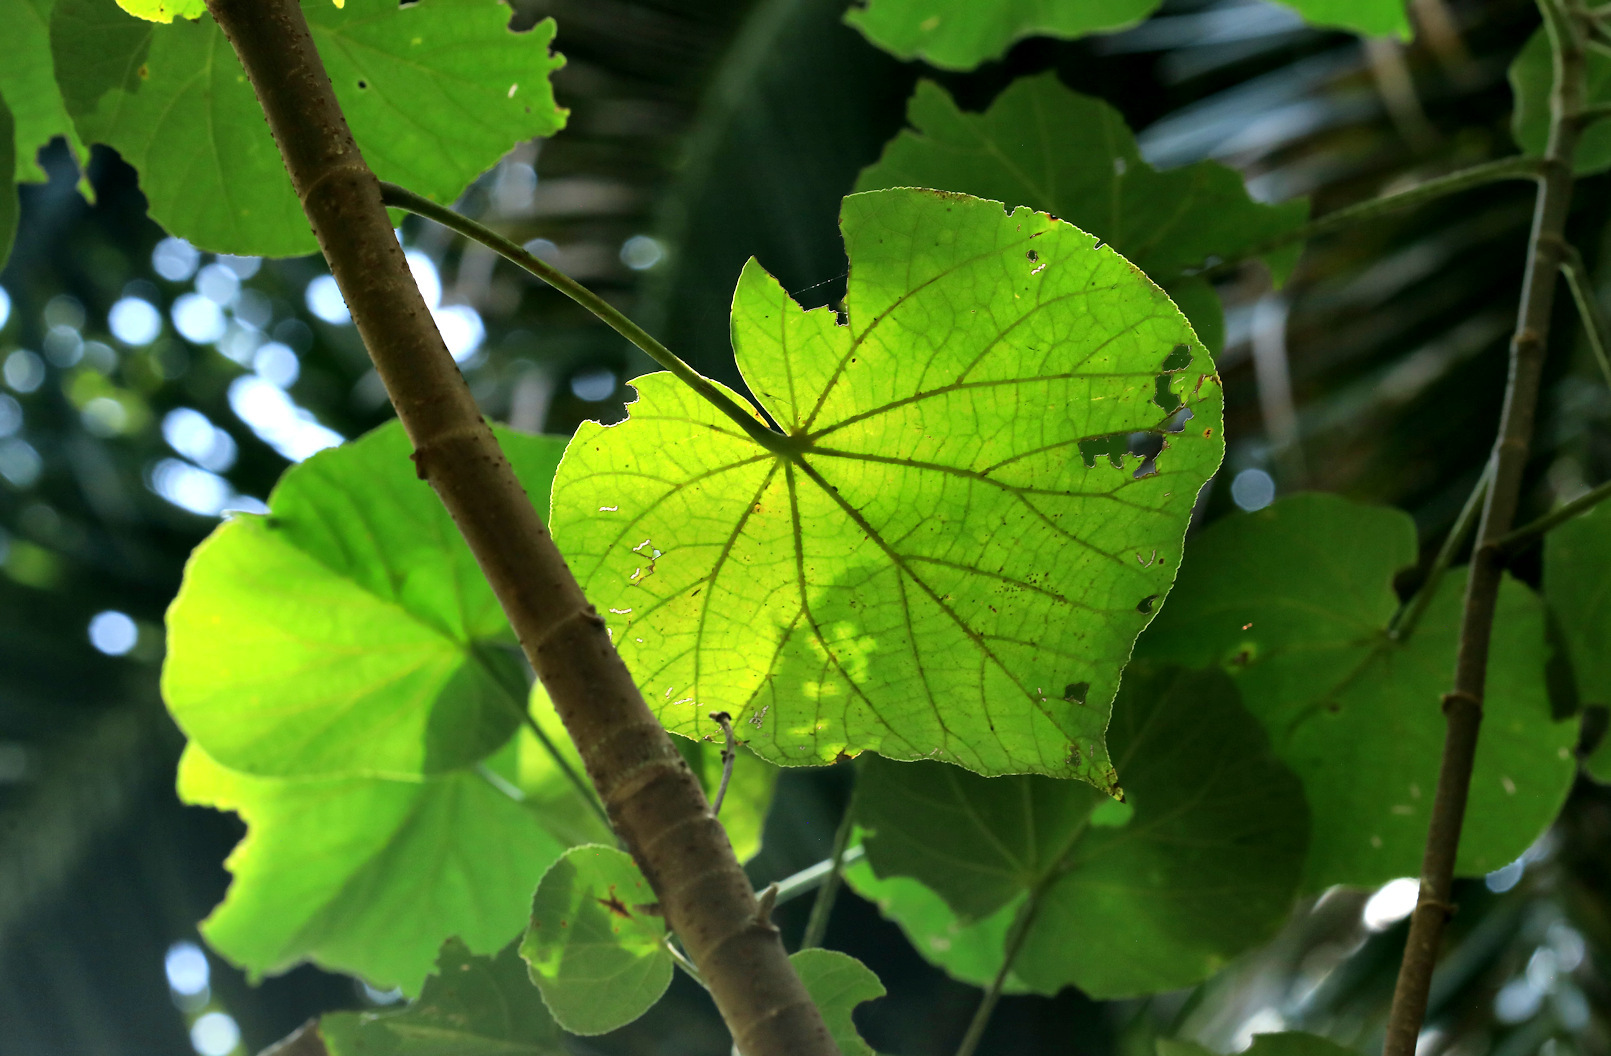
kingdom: Plantae
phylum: Tracheophyta
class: Magnoliopsida
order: Malvales
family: Malvaceae
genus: Talipariti
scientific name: Talipariti tiliaceum
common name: Sea hibiscus
